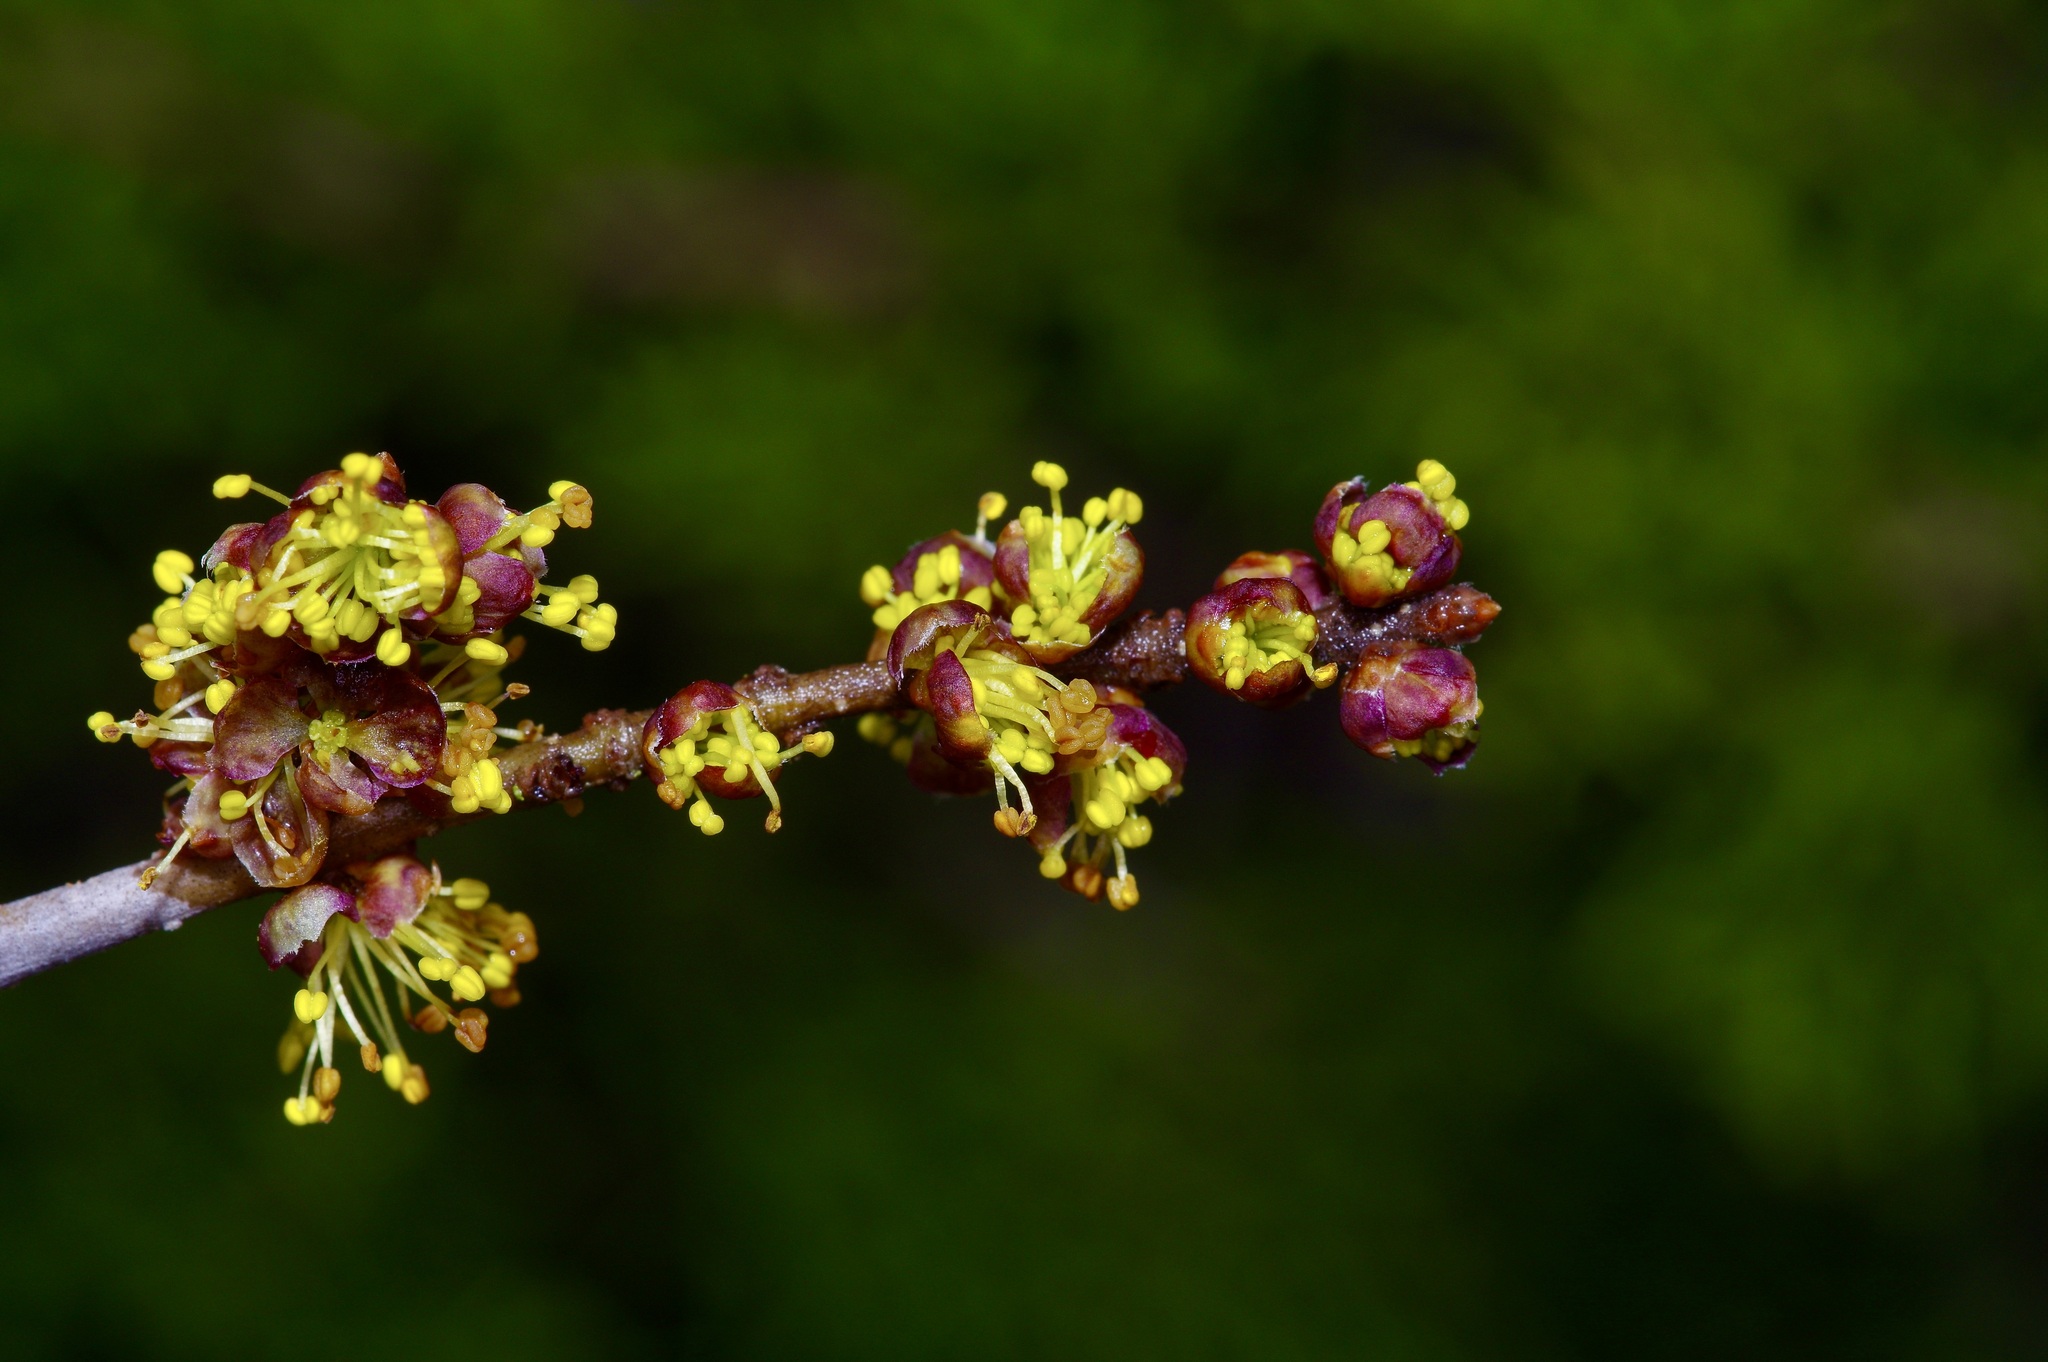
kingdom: Plantae
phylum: Tracheophyta
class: Magnoliopsida
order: Lamiales
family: Oleaceae
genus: Forestiera
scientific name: Forestiera pubescens
